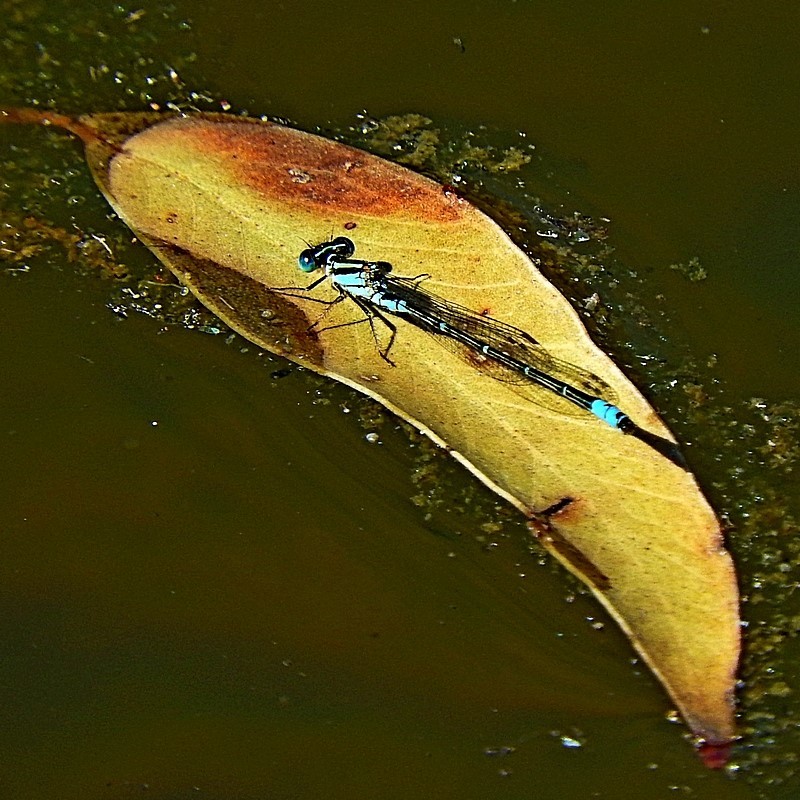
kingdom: Animalia
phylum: Arthropoda
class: Insecta
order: Odonata
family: Coenagrionidae
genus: Austroagrion
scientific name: Austroagrion watsoni
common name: Eastern billabongfly
